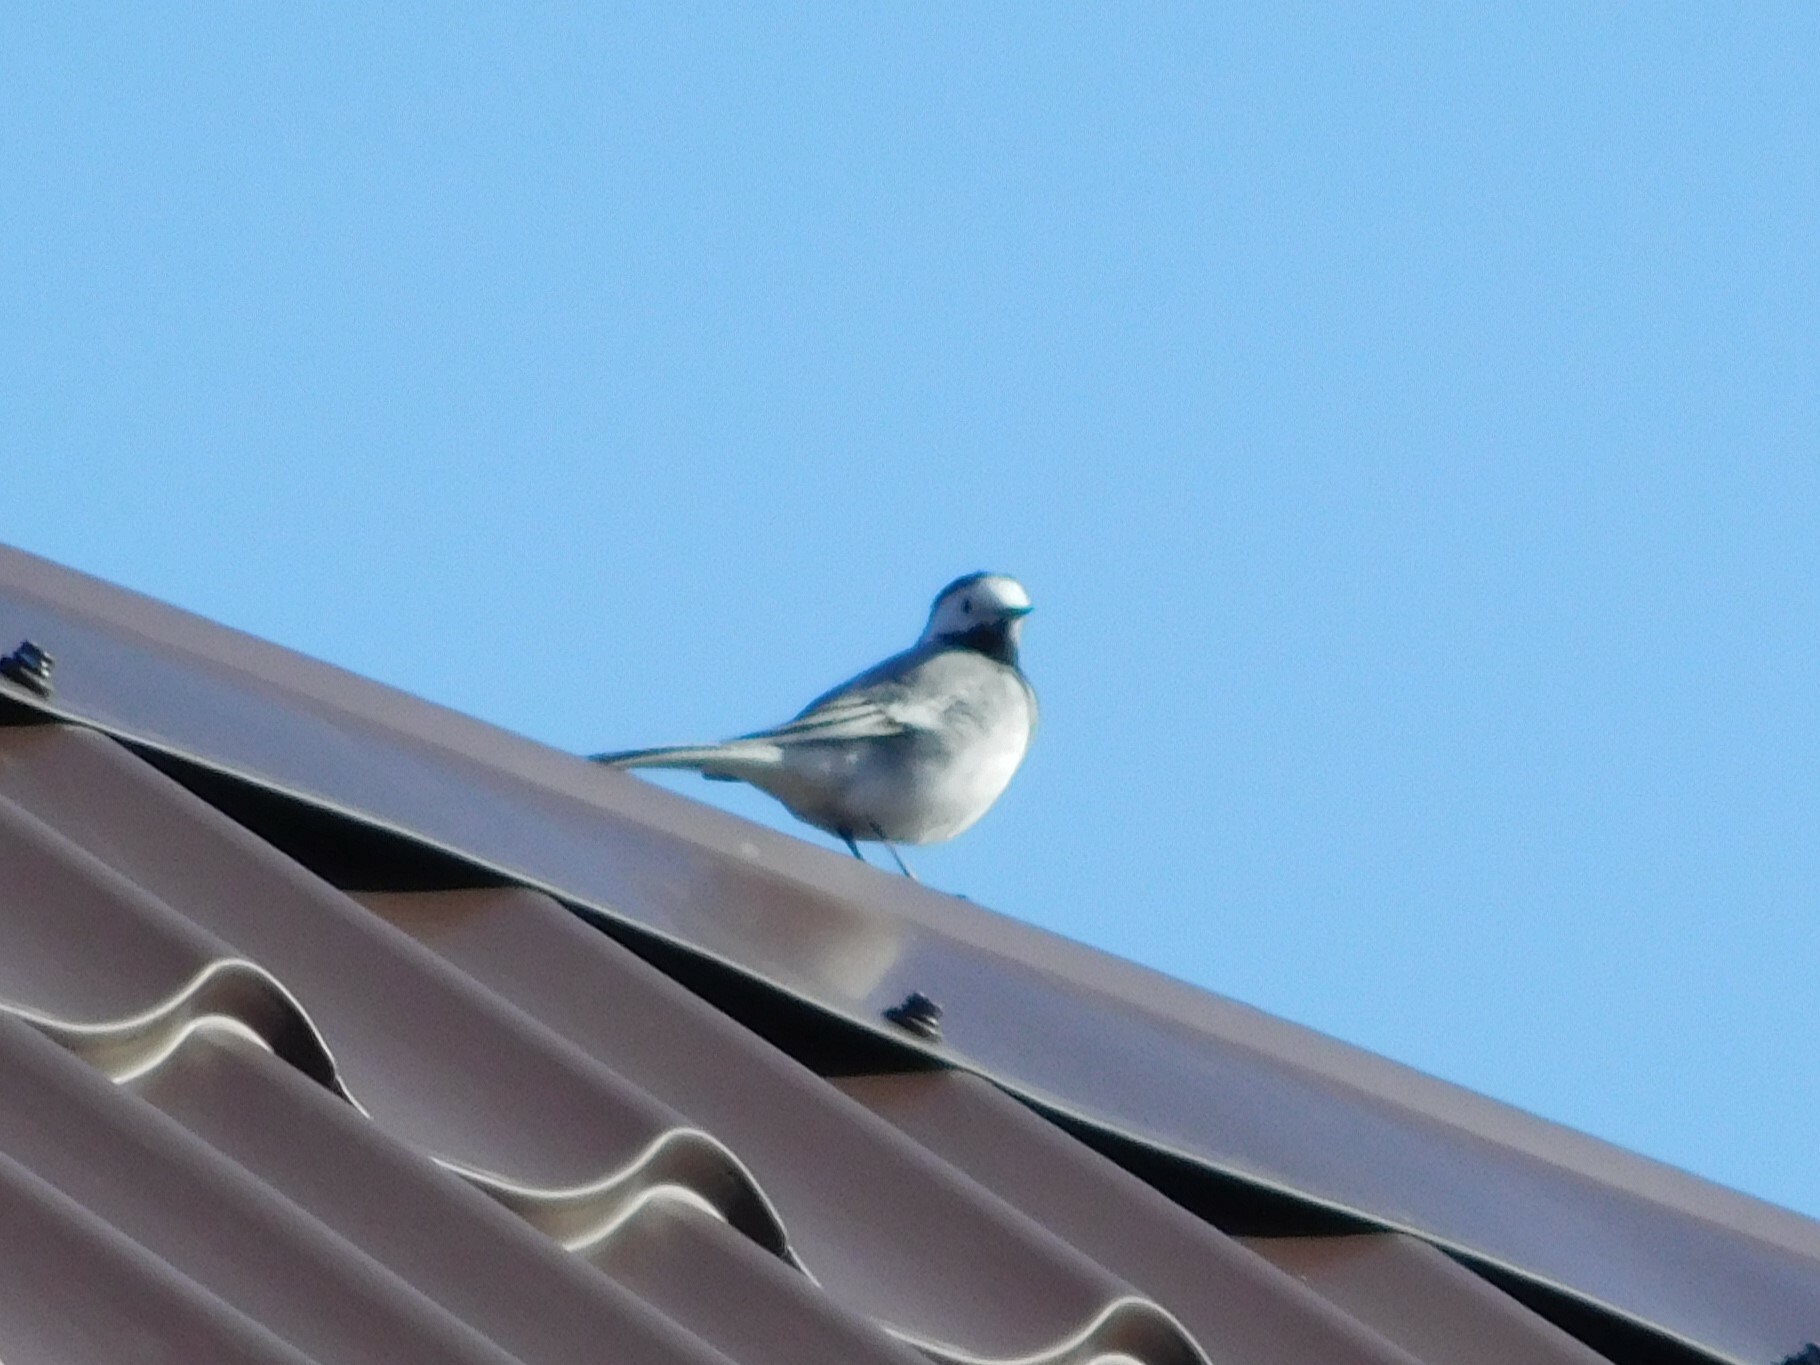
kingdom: Animalia
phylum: Chordata
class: Aves
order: Passeriformes
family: Motacillidae
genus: Motacilla
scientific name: Motacilla alba
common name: White wagtail
